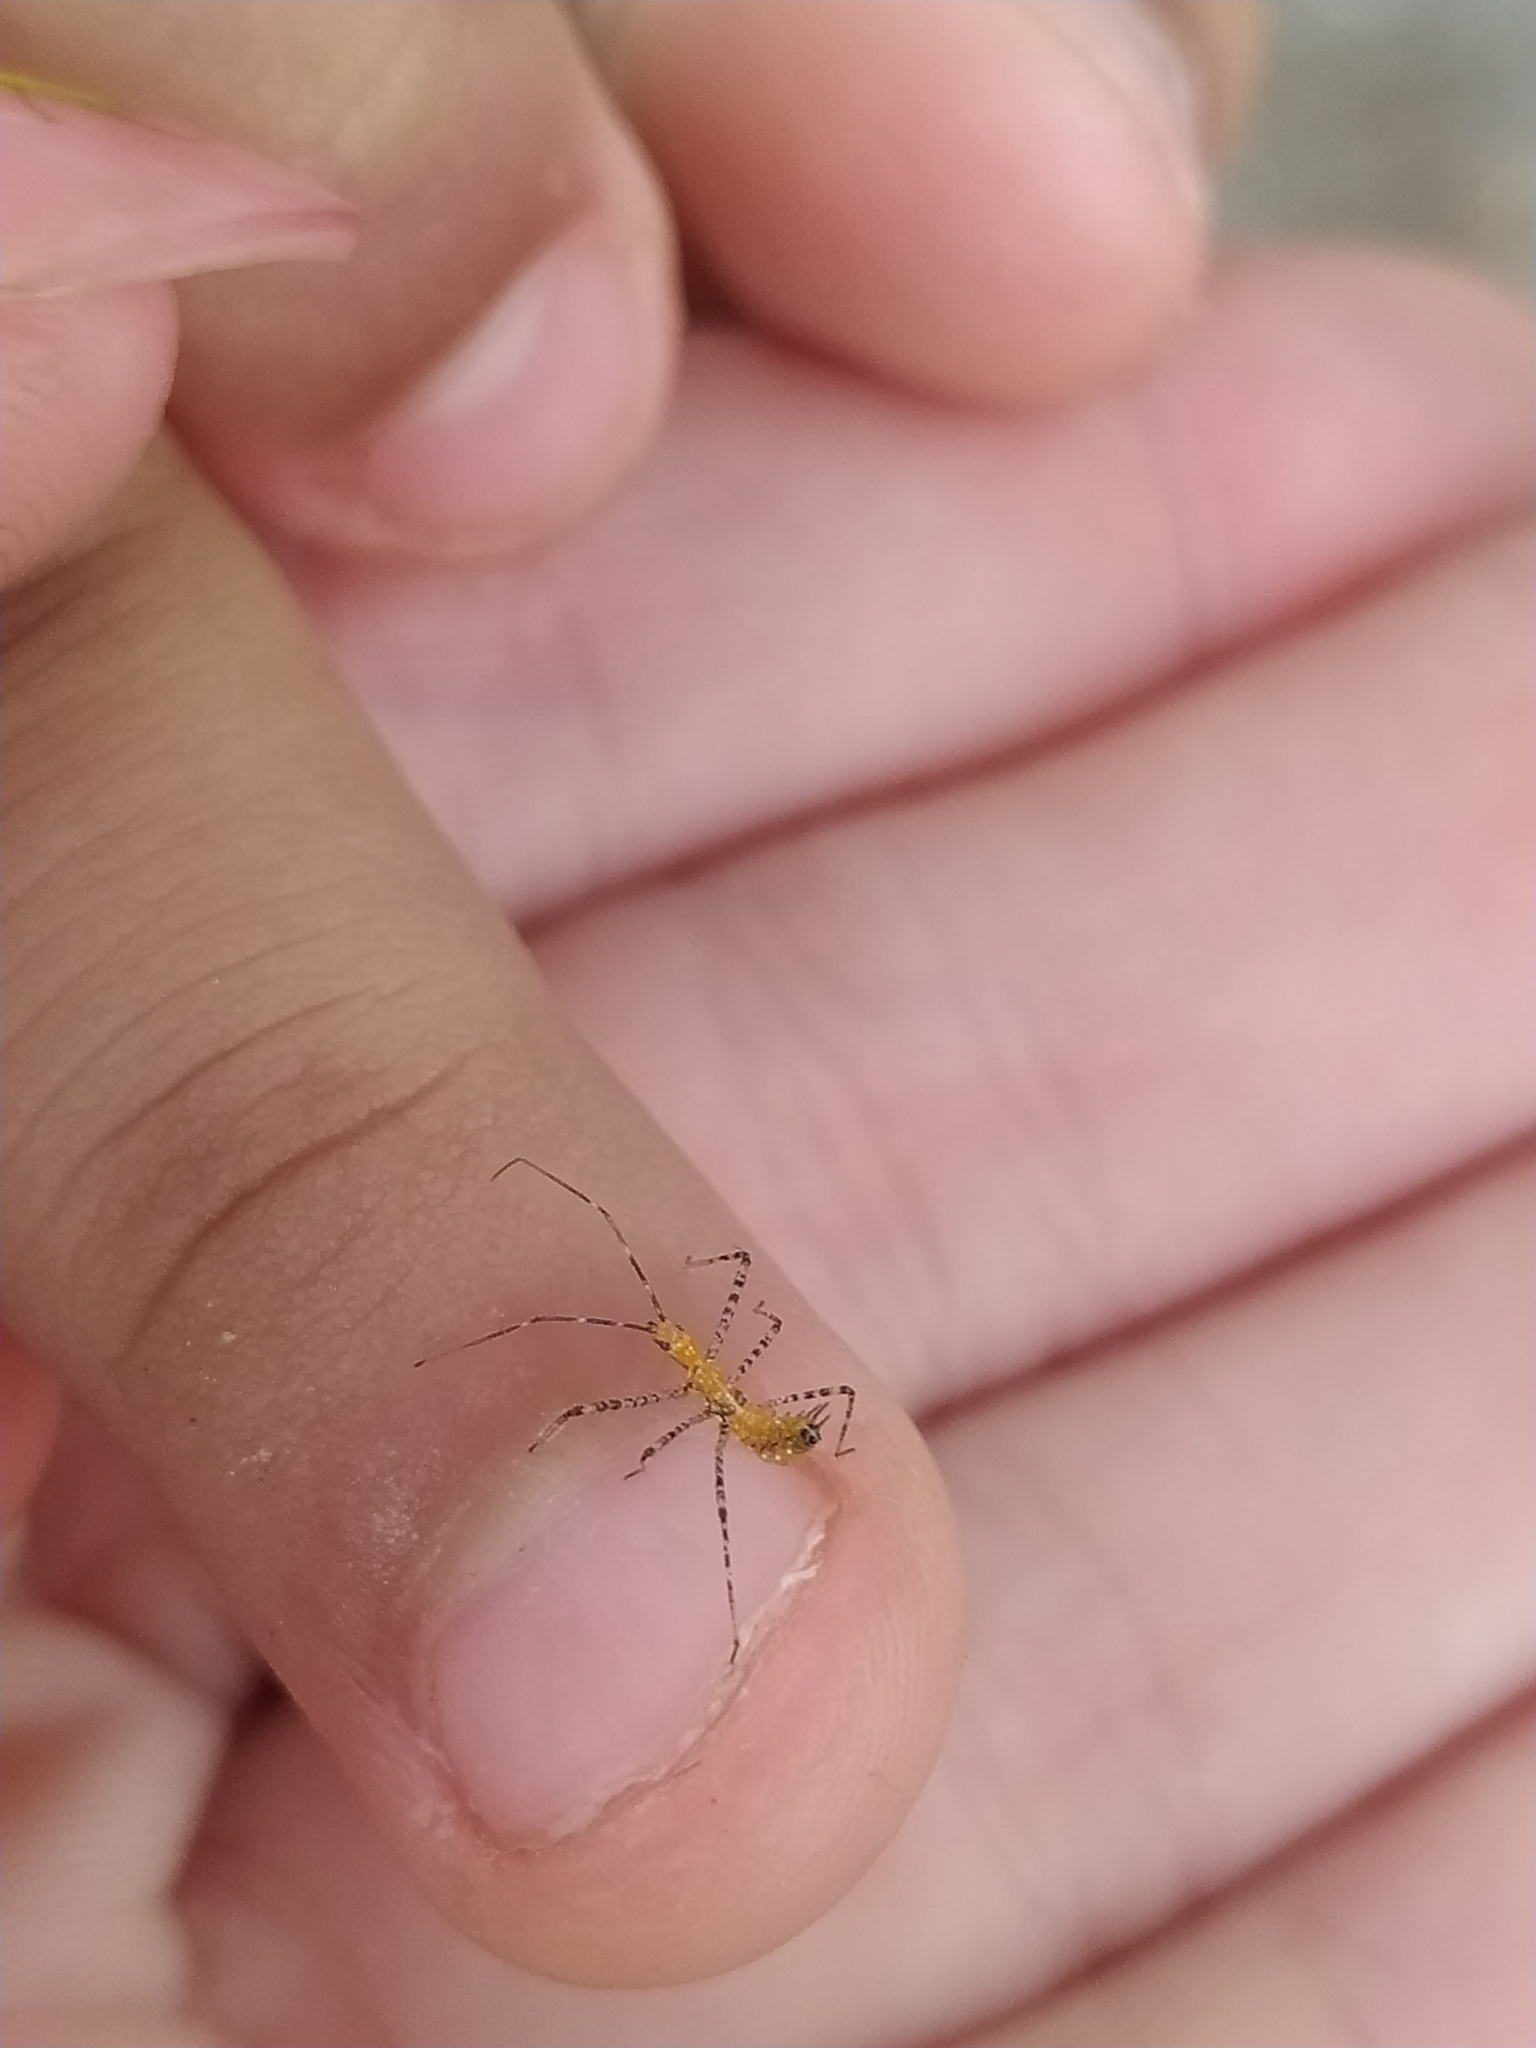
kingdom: Animalia
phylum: Arthropoda
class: Insecta
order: Hemiptera
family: Reduviidae
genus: Zelus
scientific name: Zelus renardii
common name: Assassin bug
